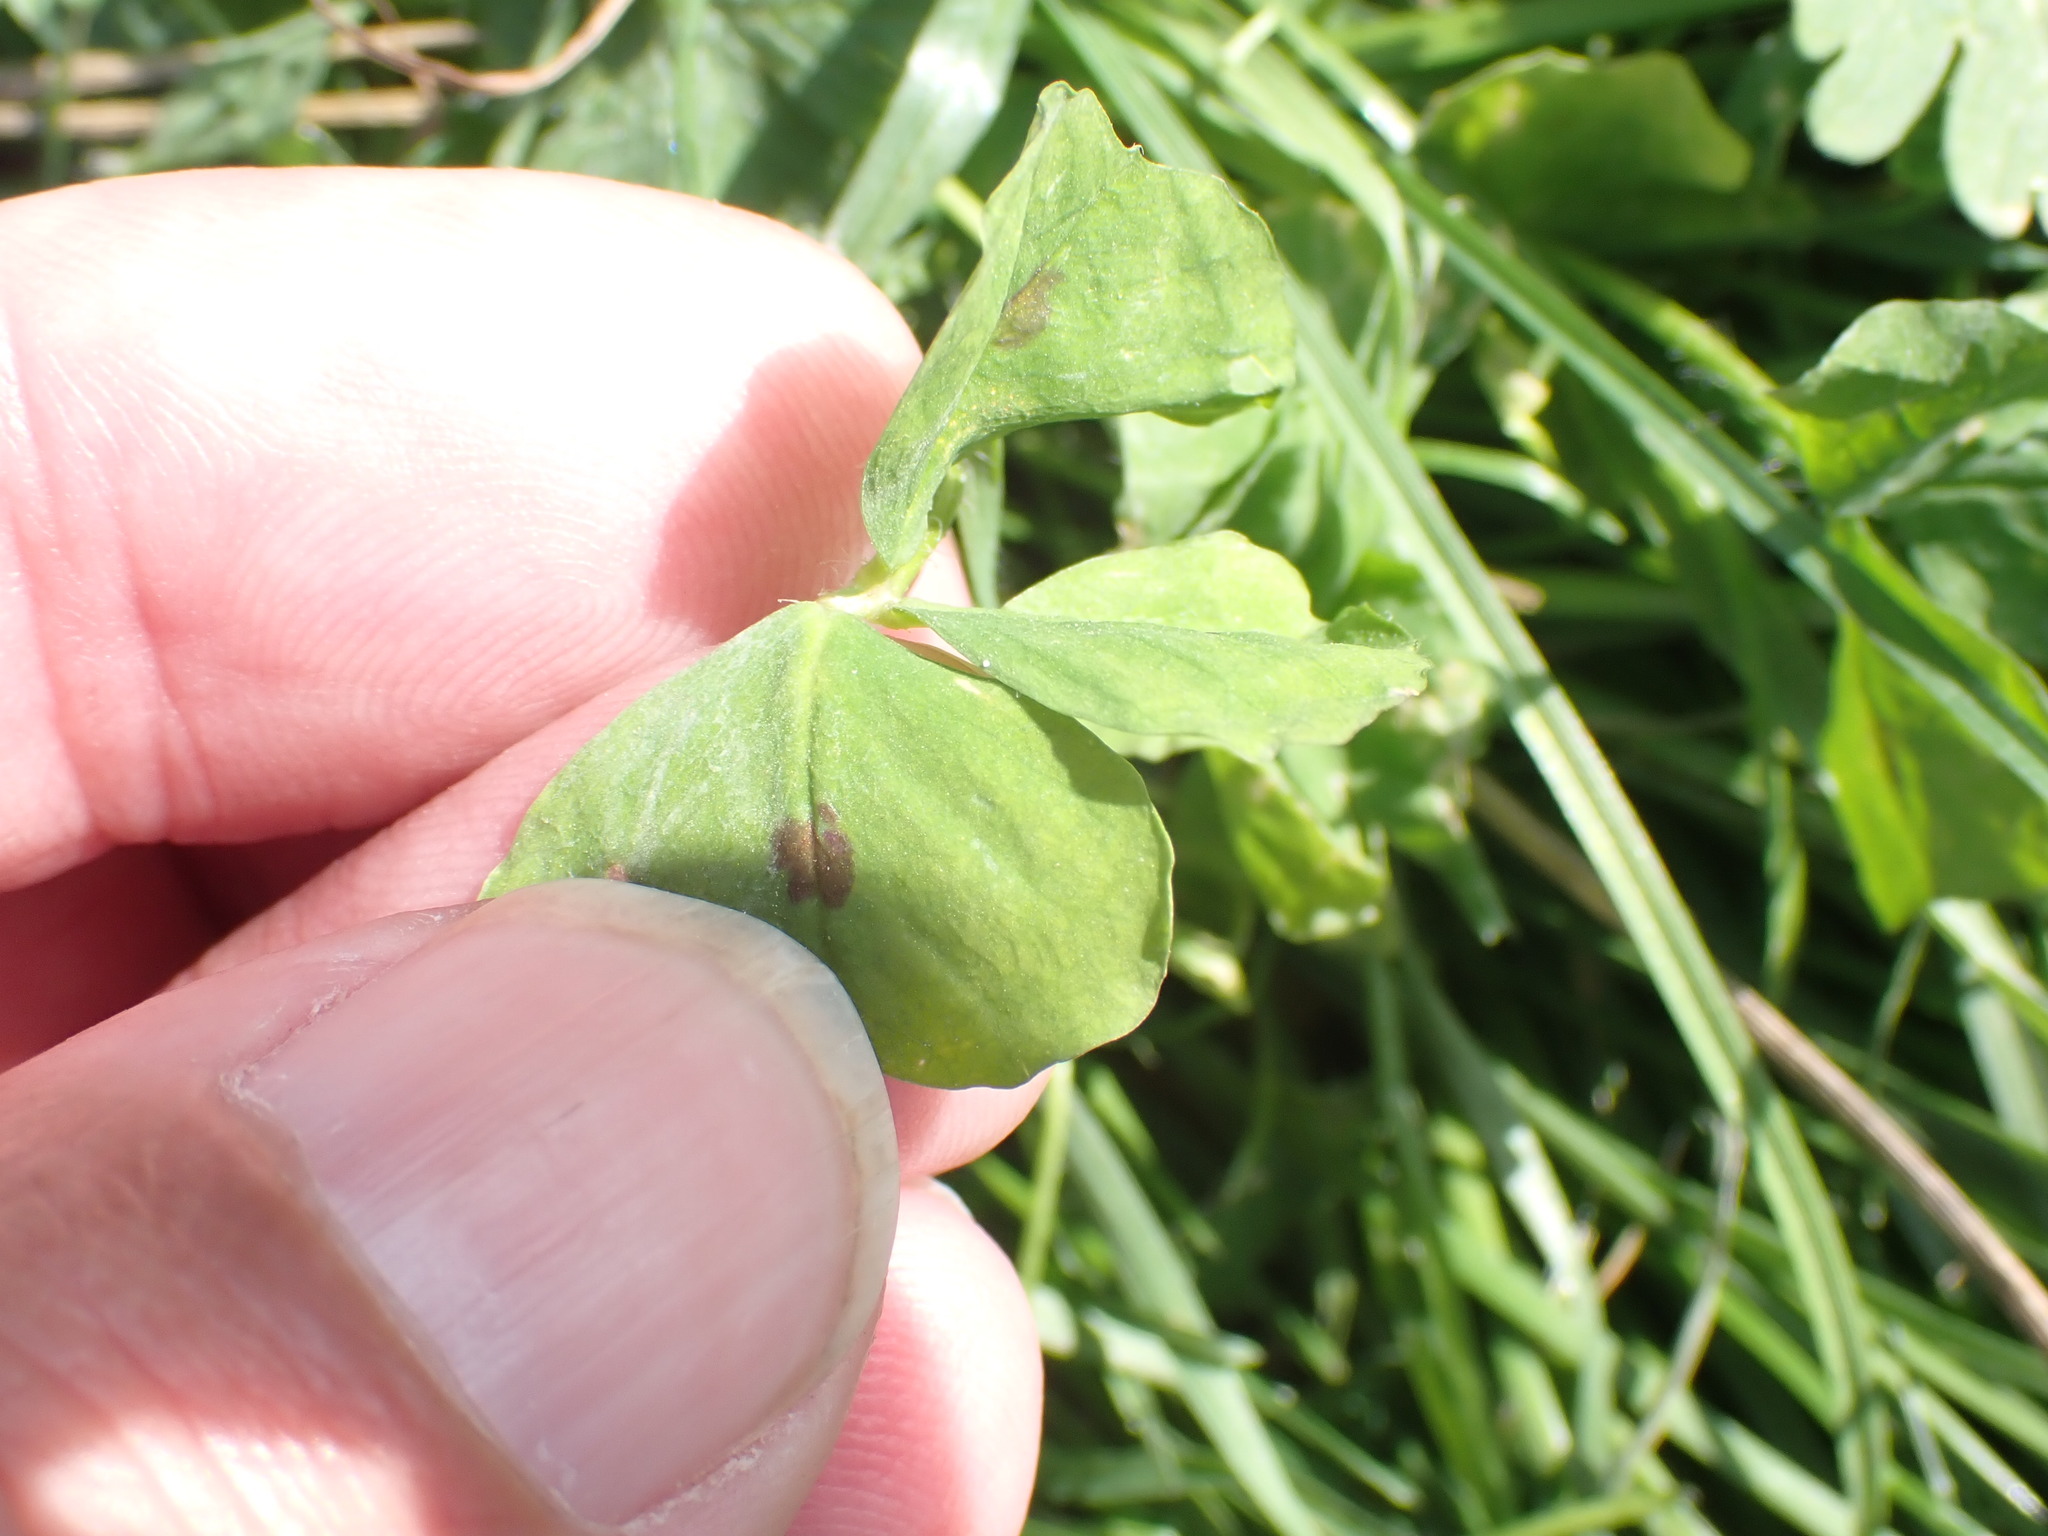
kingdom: Plantae
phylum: Tracheophyta
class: Magnoliopsida
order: Fabales
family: Fabaceae
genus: Medicago
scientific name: Medicago arabica
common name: Spotted medick
